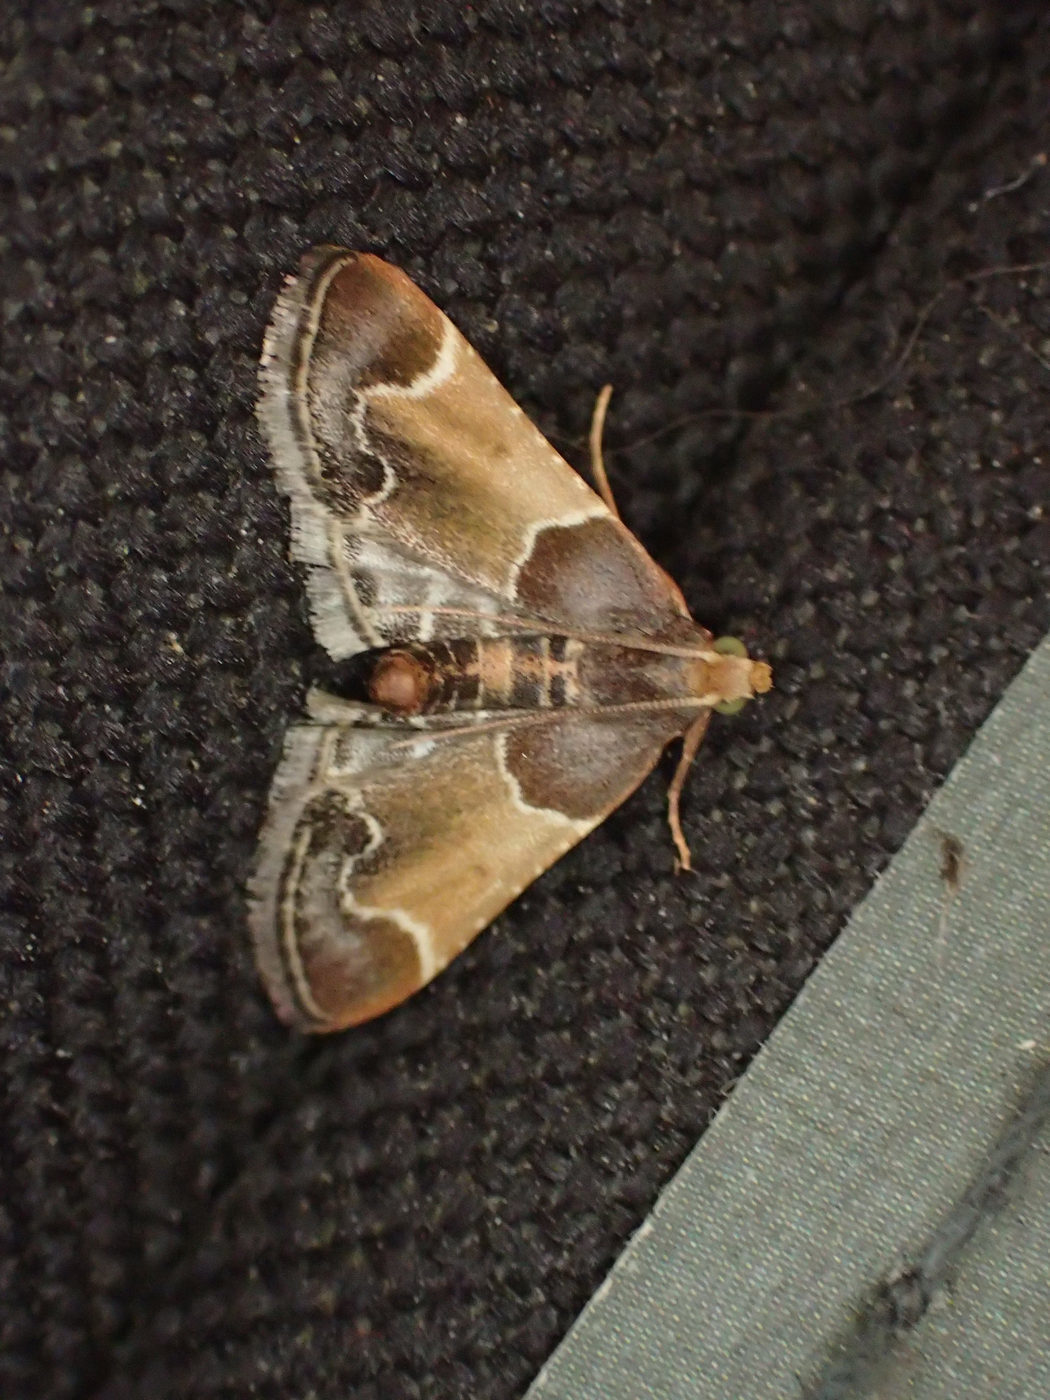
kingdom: Animalia
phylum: Arthropoda
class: Insecta
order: Lepidoptera
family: Pyralidae
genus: Pyralis
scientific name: Pyralis farinalis
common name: Meal moth
